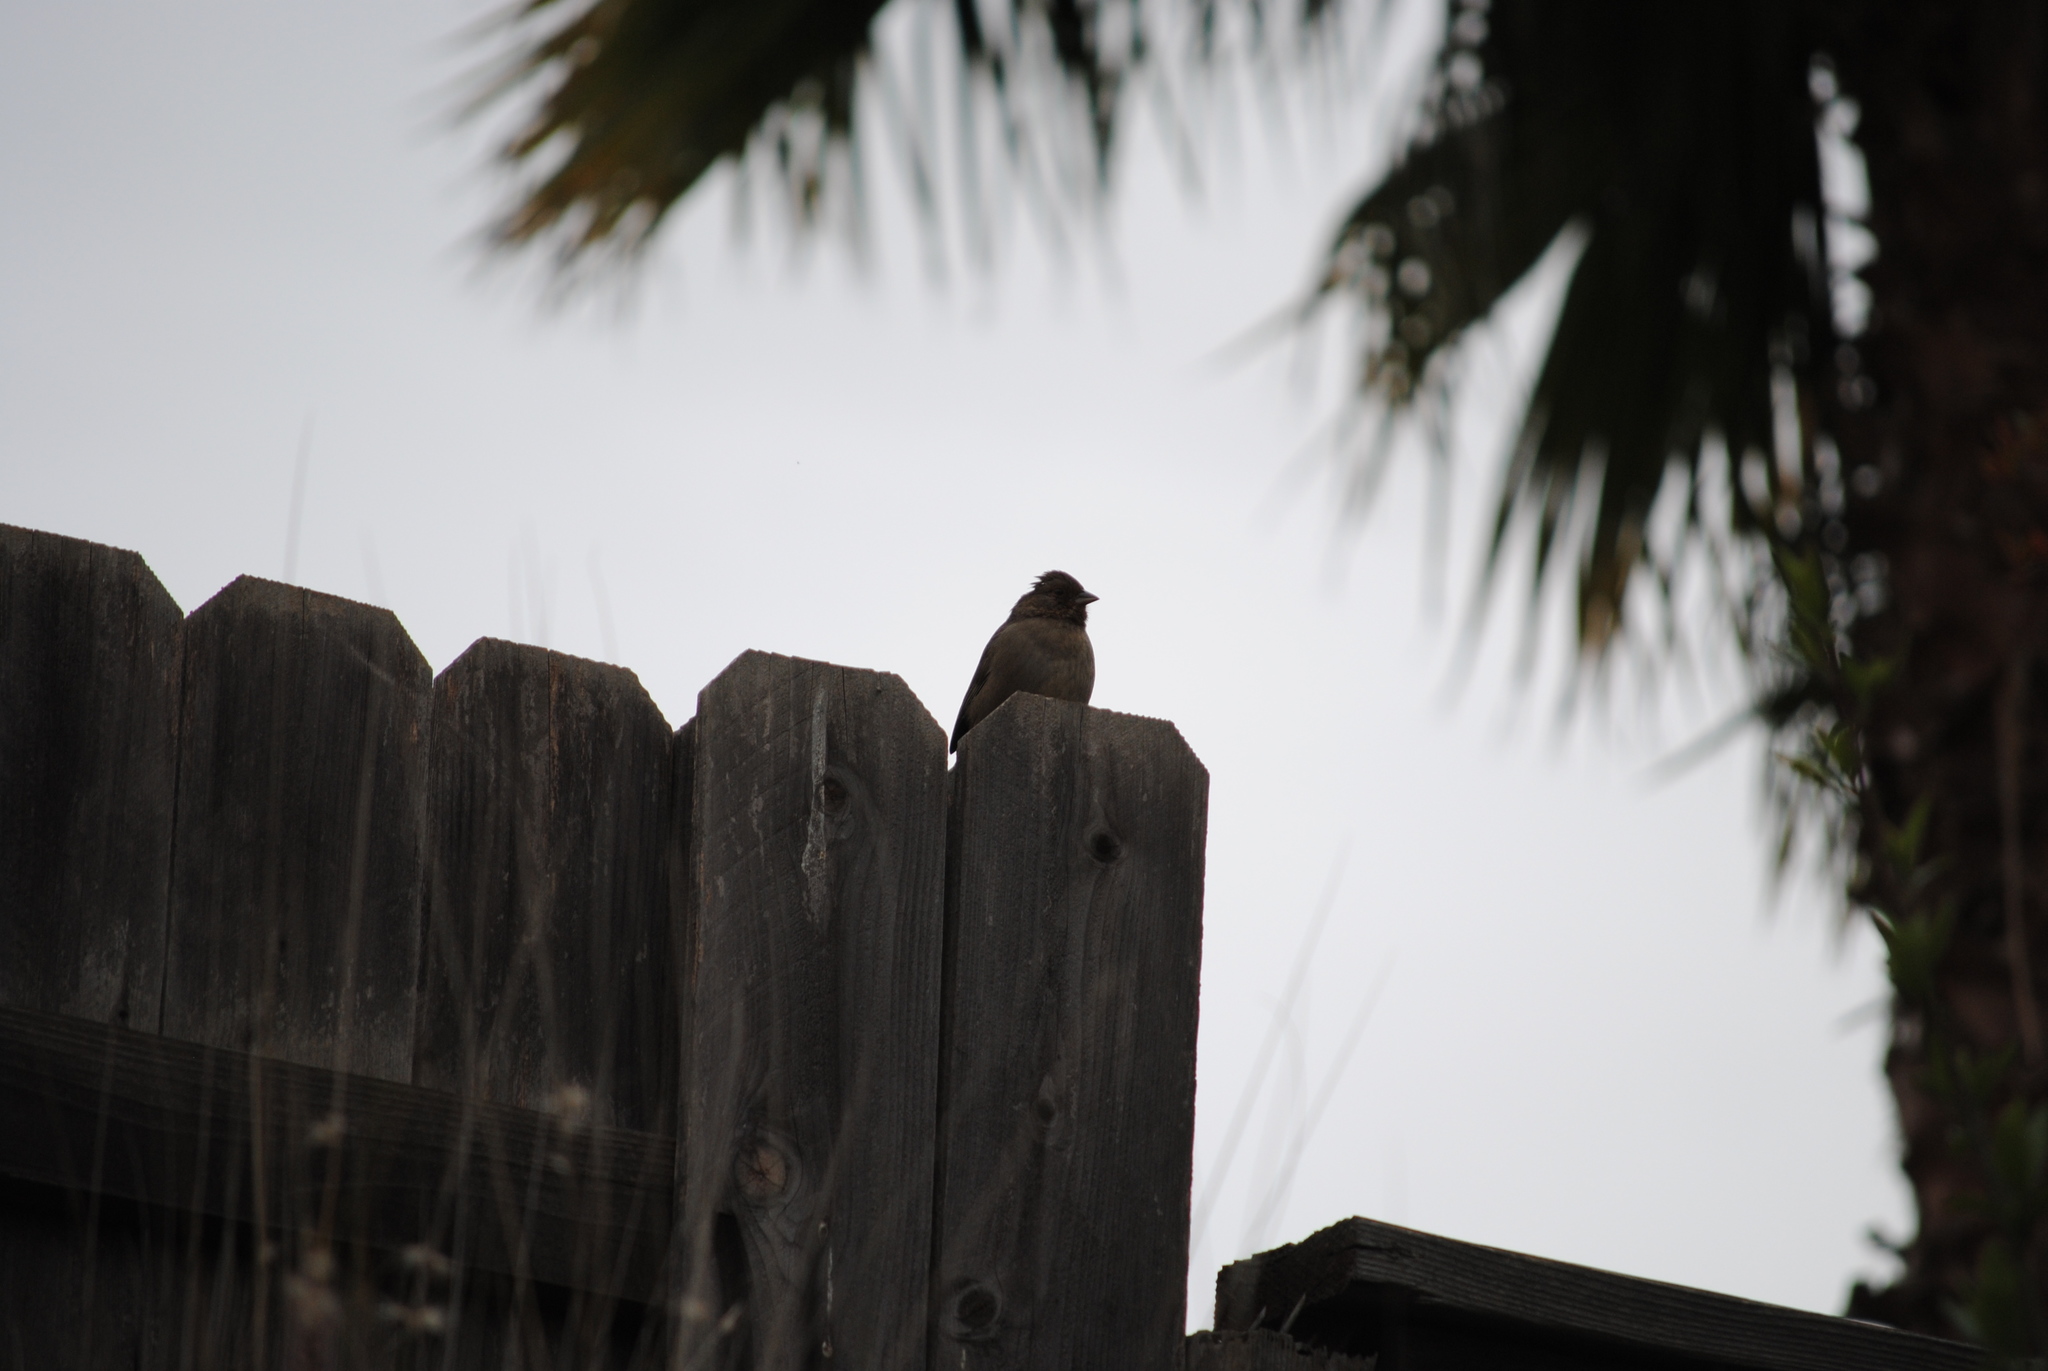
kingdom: Animalia
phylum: Chordata
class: Aves
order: Passeriformes
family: Passerellidae
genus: Melozone
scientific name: Melozone crissalis
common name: California towhee
